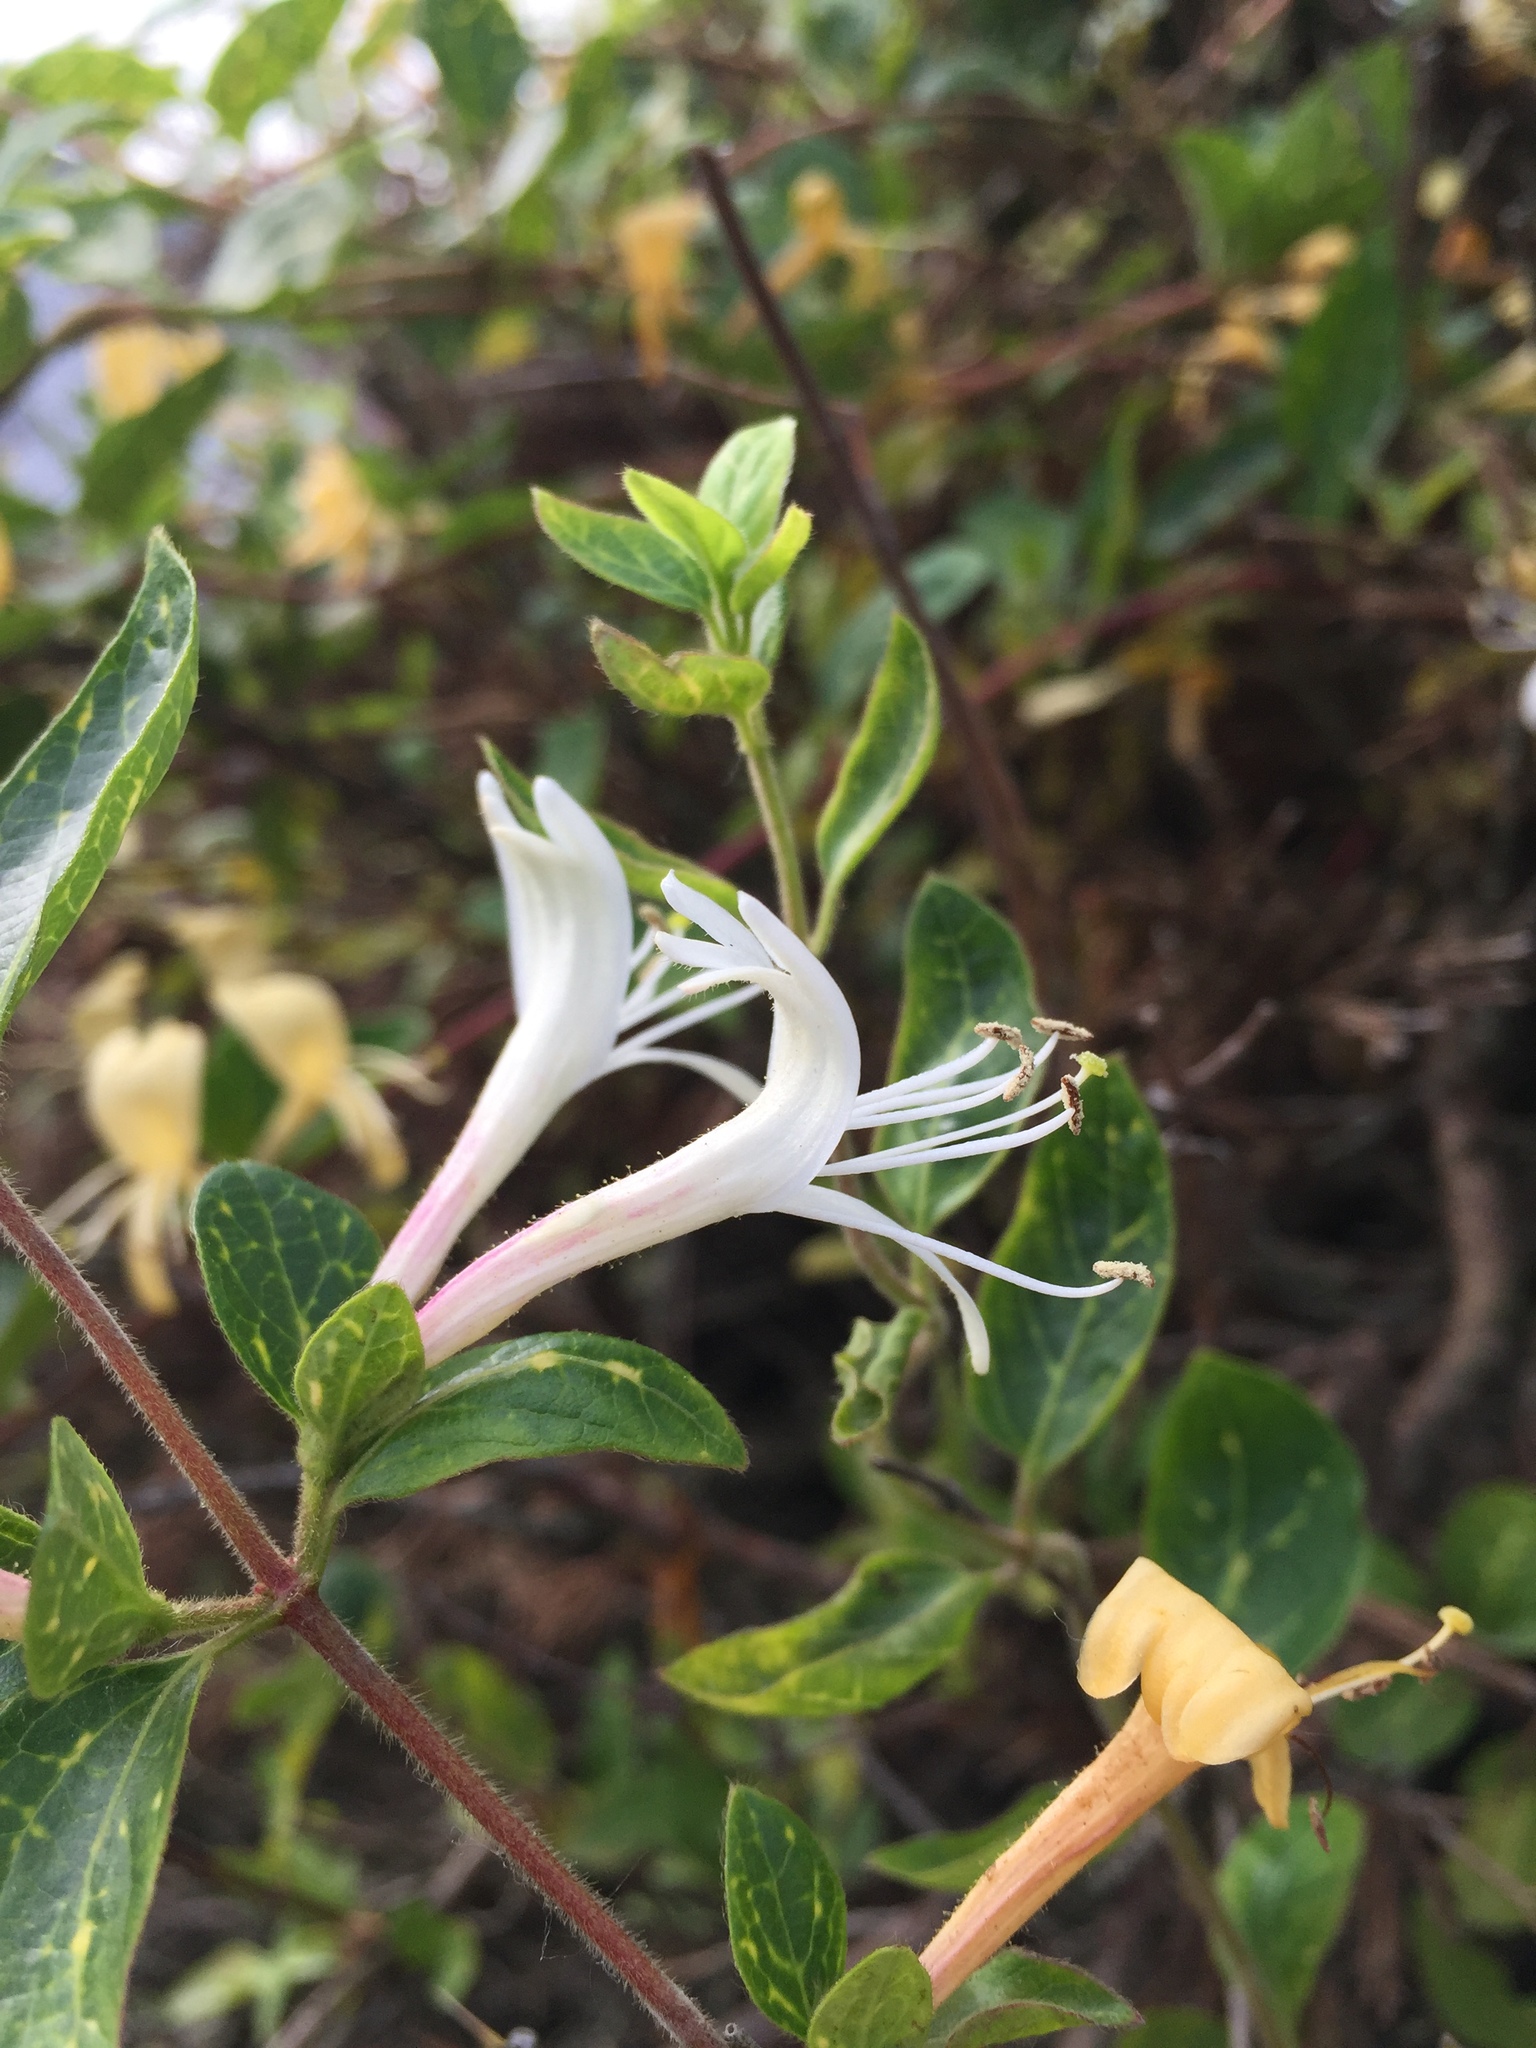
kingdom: Plantae
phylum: Tracheophyta
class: Magnoliopsida
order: Dipsacales
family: Caprifoliaceae
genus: Lonicera
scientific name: Lonicera japonica
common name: Japanese honeysuckle
